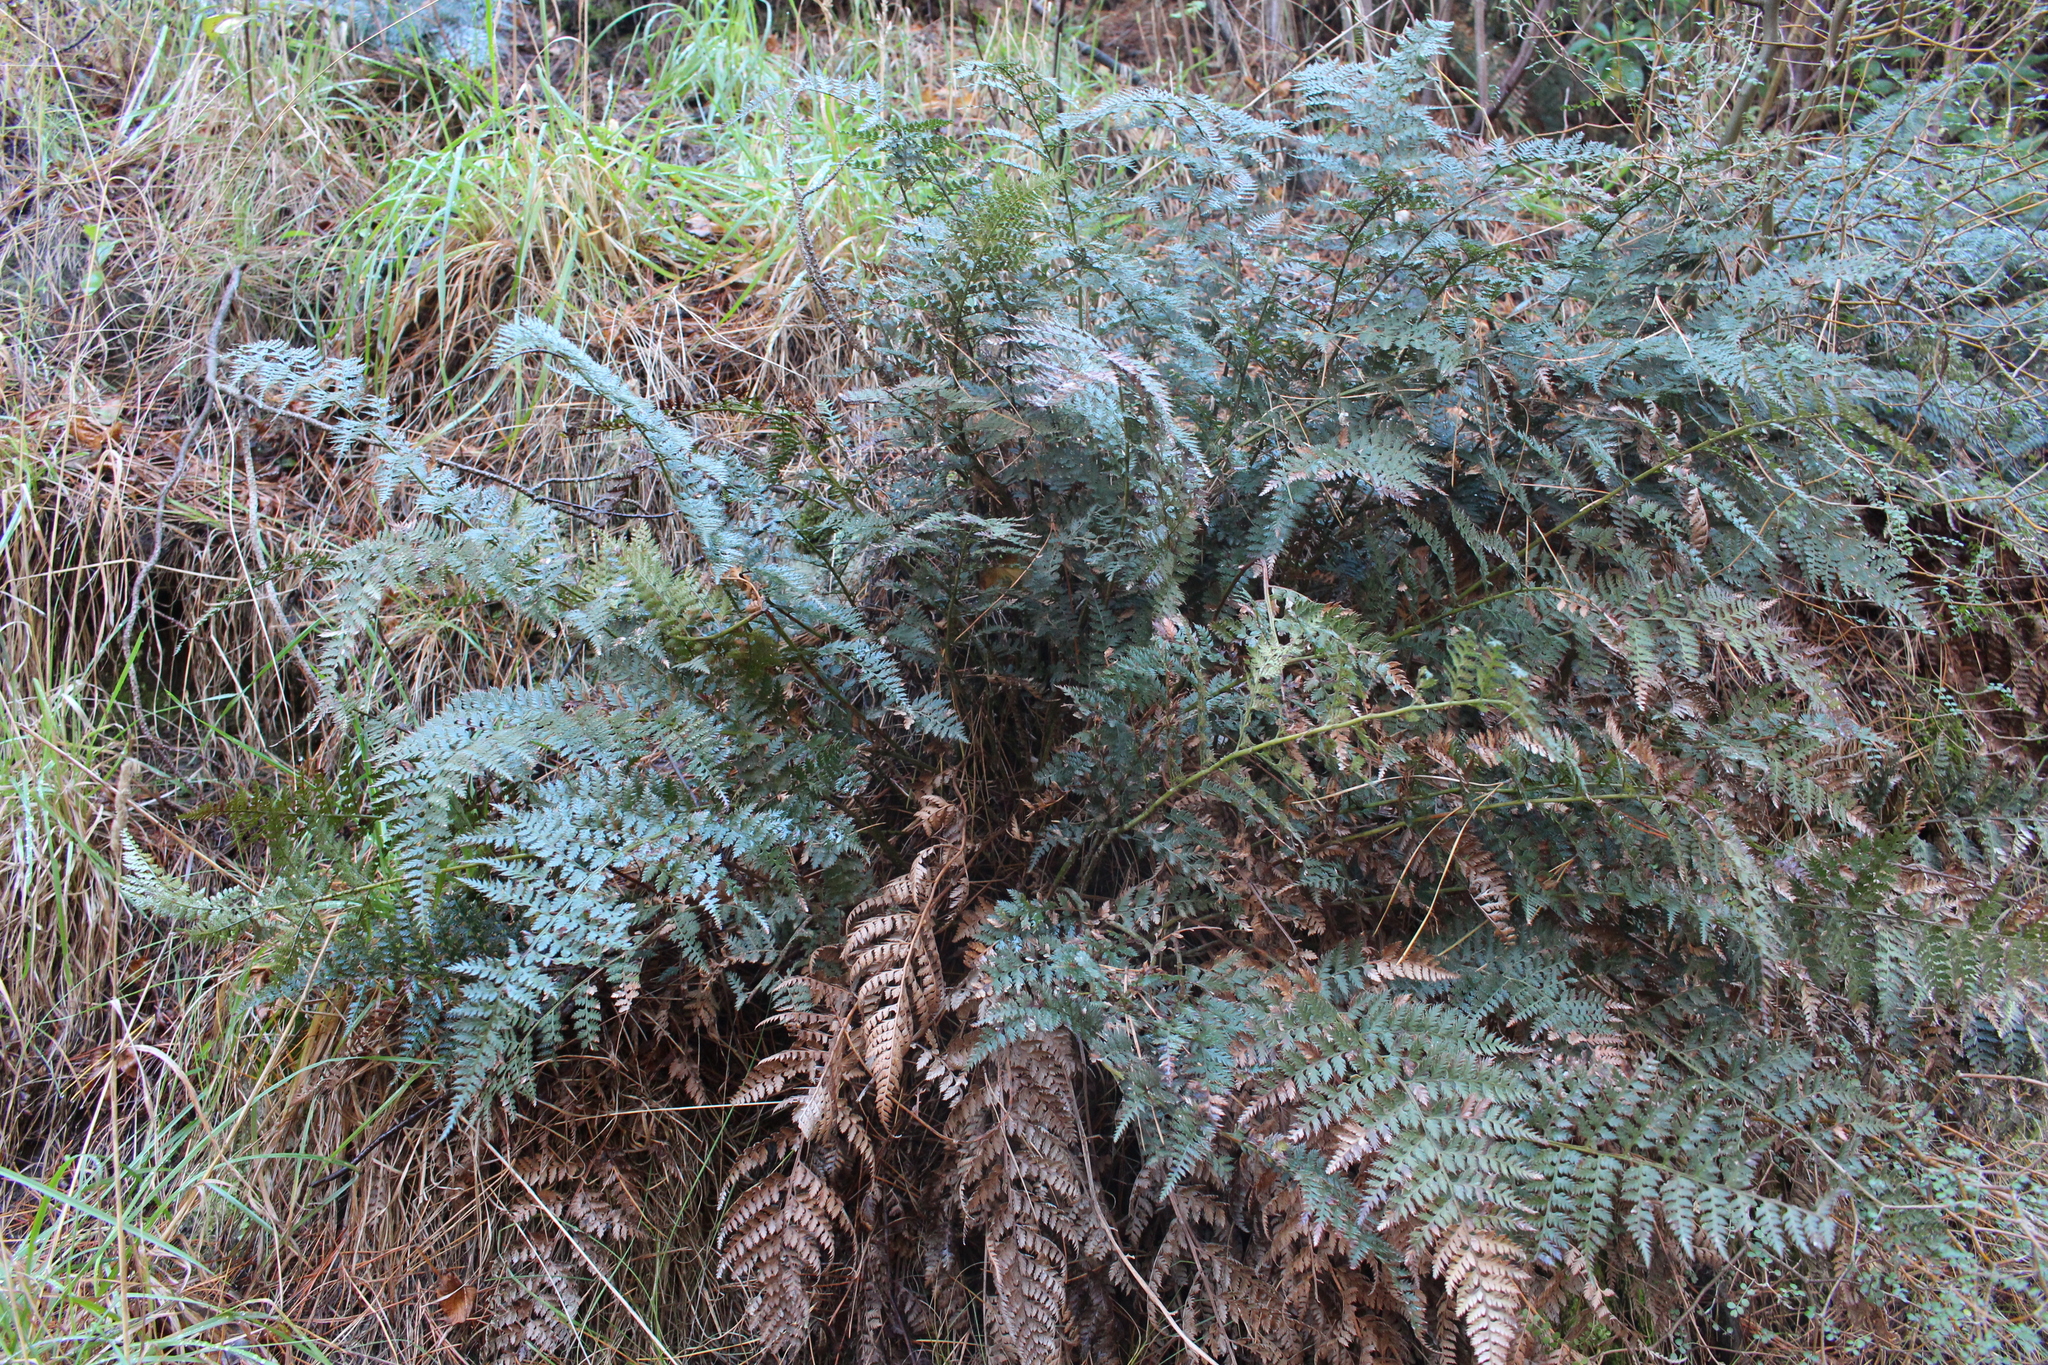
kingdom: Plantae
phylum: Tracheophyta
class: Polypodiopsida
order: Polypodiales
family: Dryopteridaceae
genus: Polystichum
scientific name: Polystichum oculatum
